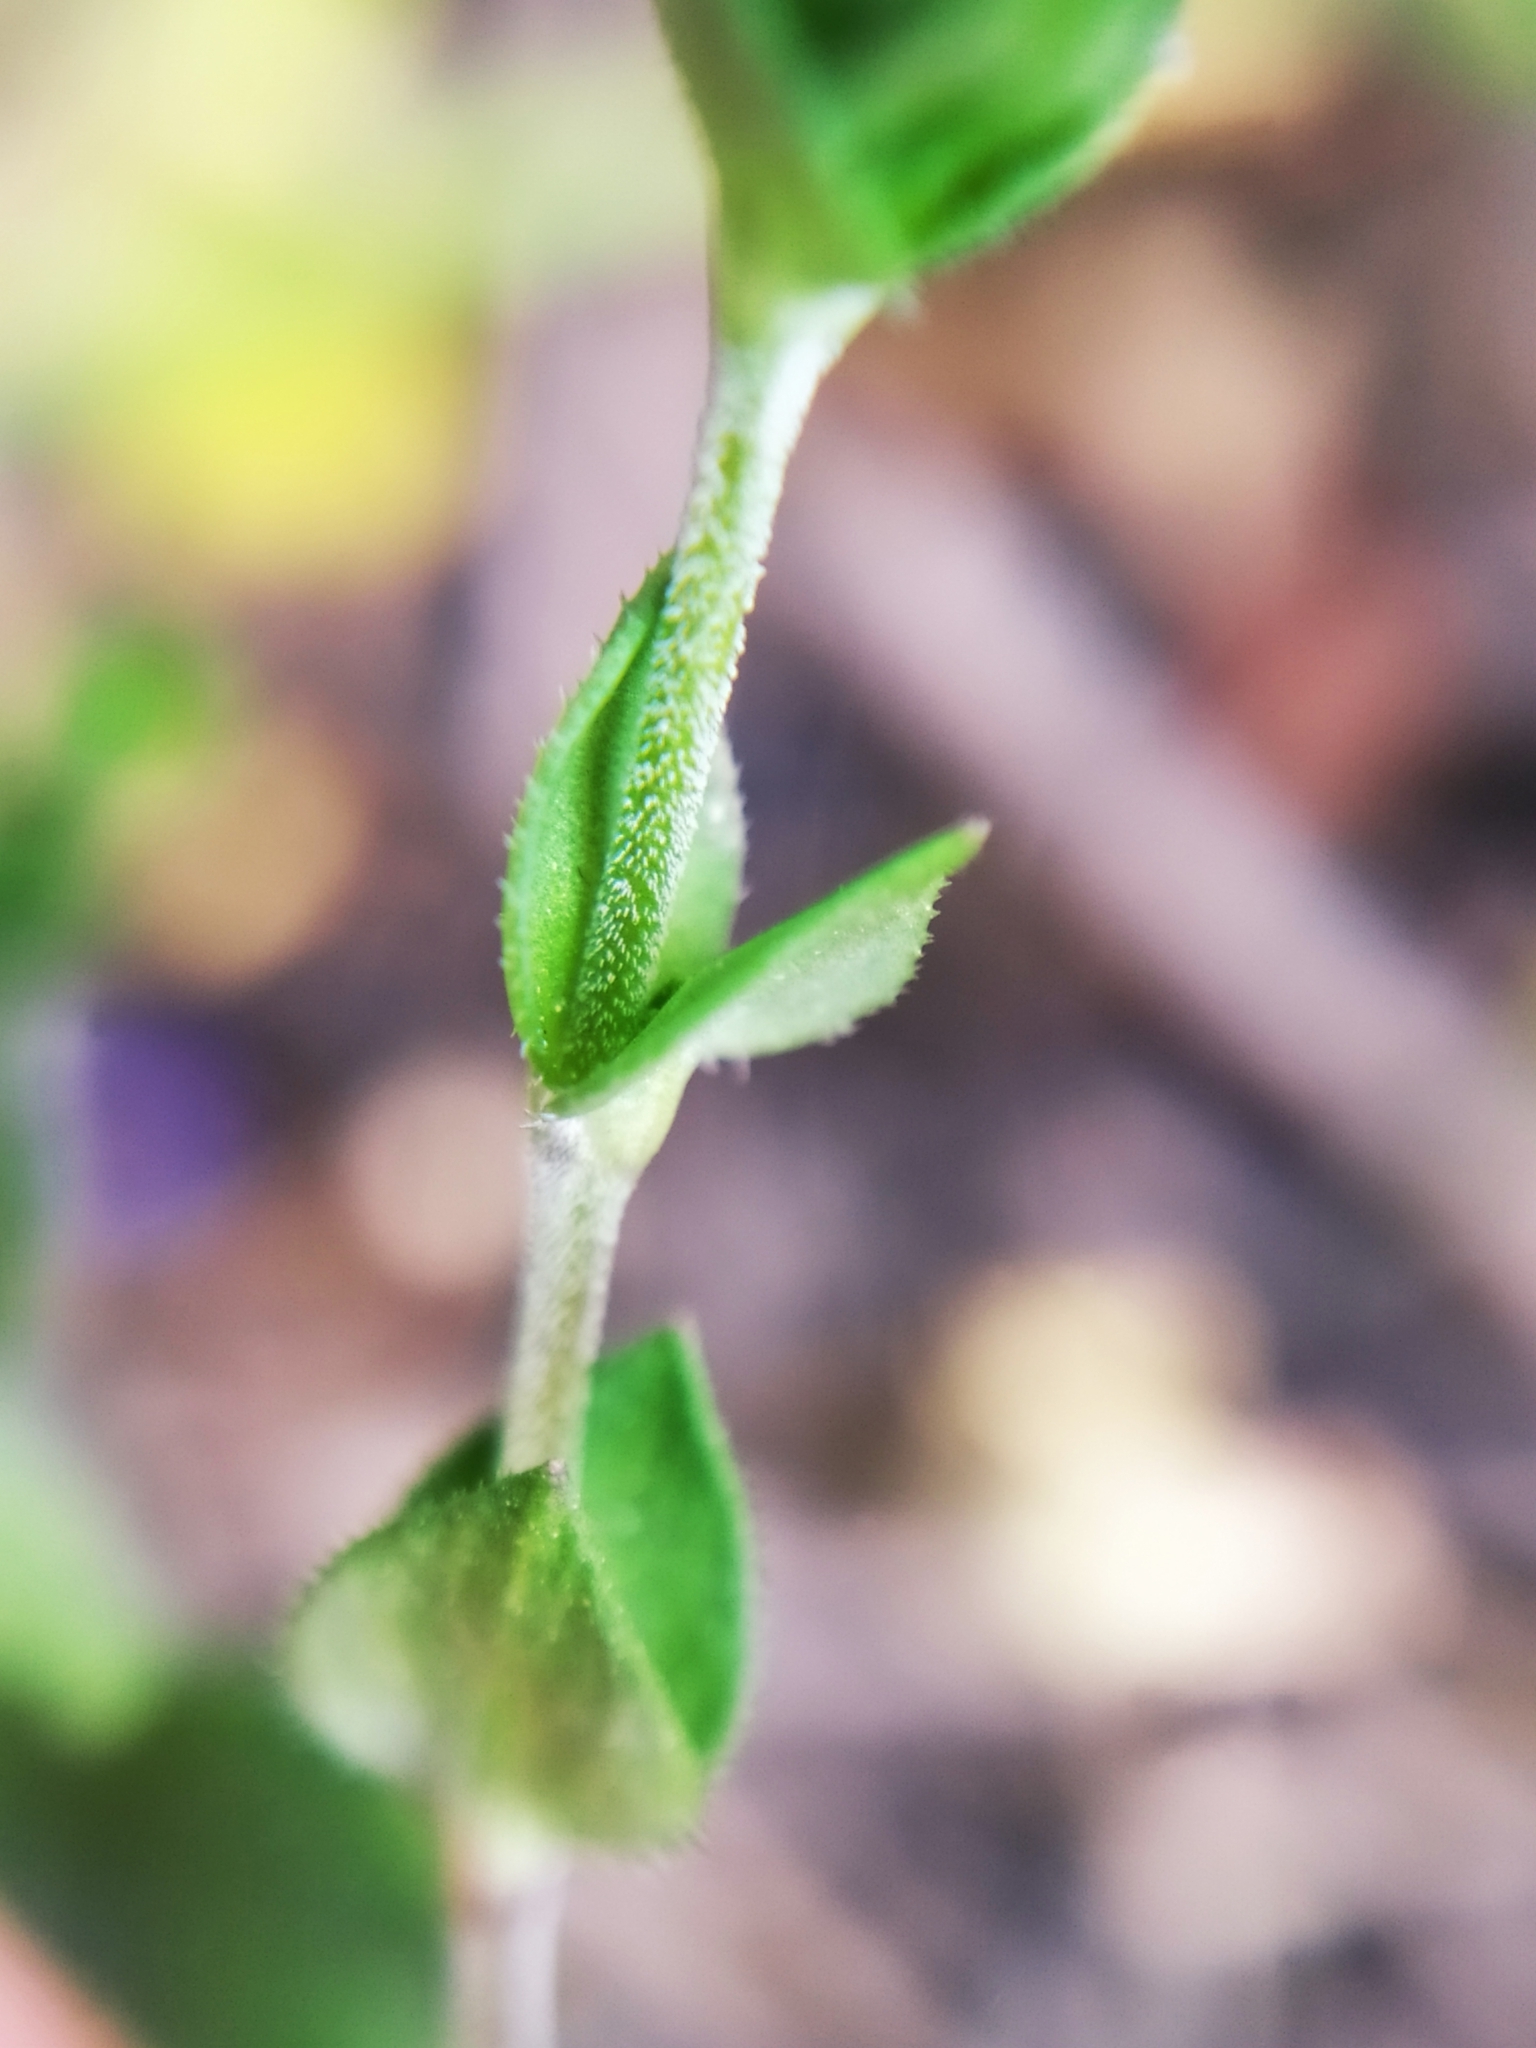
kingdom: Plantae
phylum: Tracheophyta
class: Magnoliopsida
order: Caryophyllales
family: Caryophyllaceae
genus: Arenaria
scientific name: Arenaria serpyllifolia
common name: Thyme-leaved sandwort
